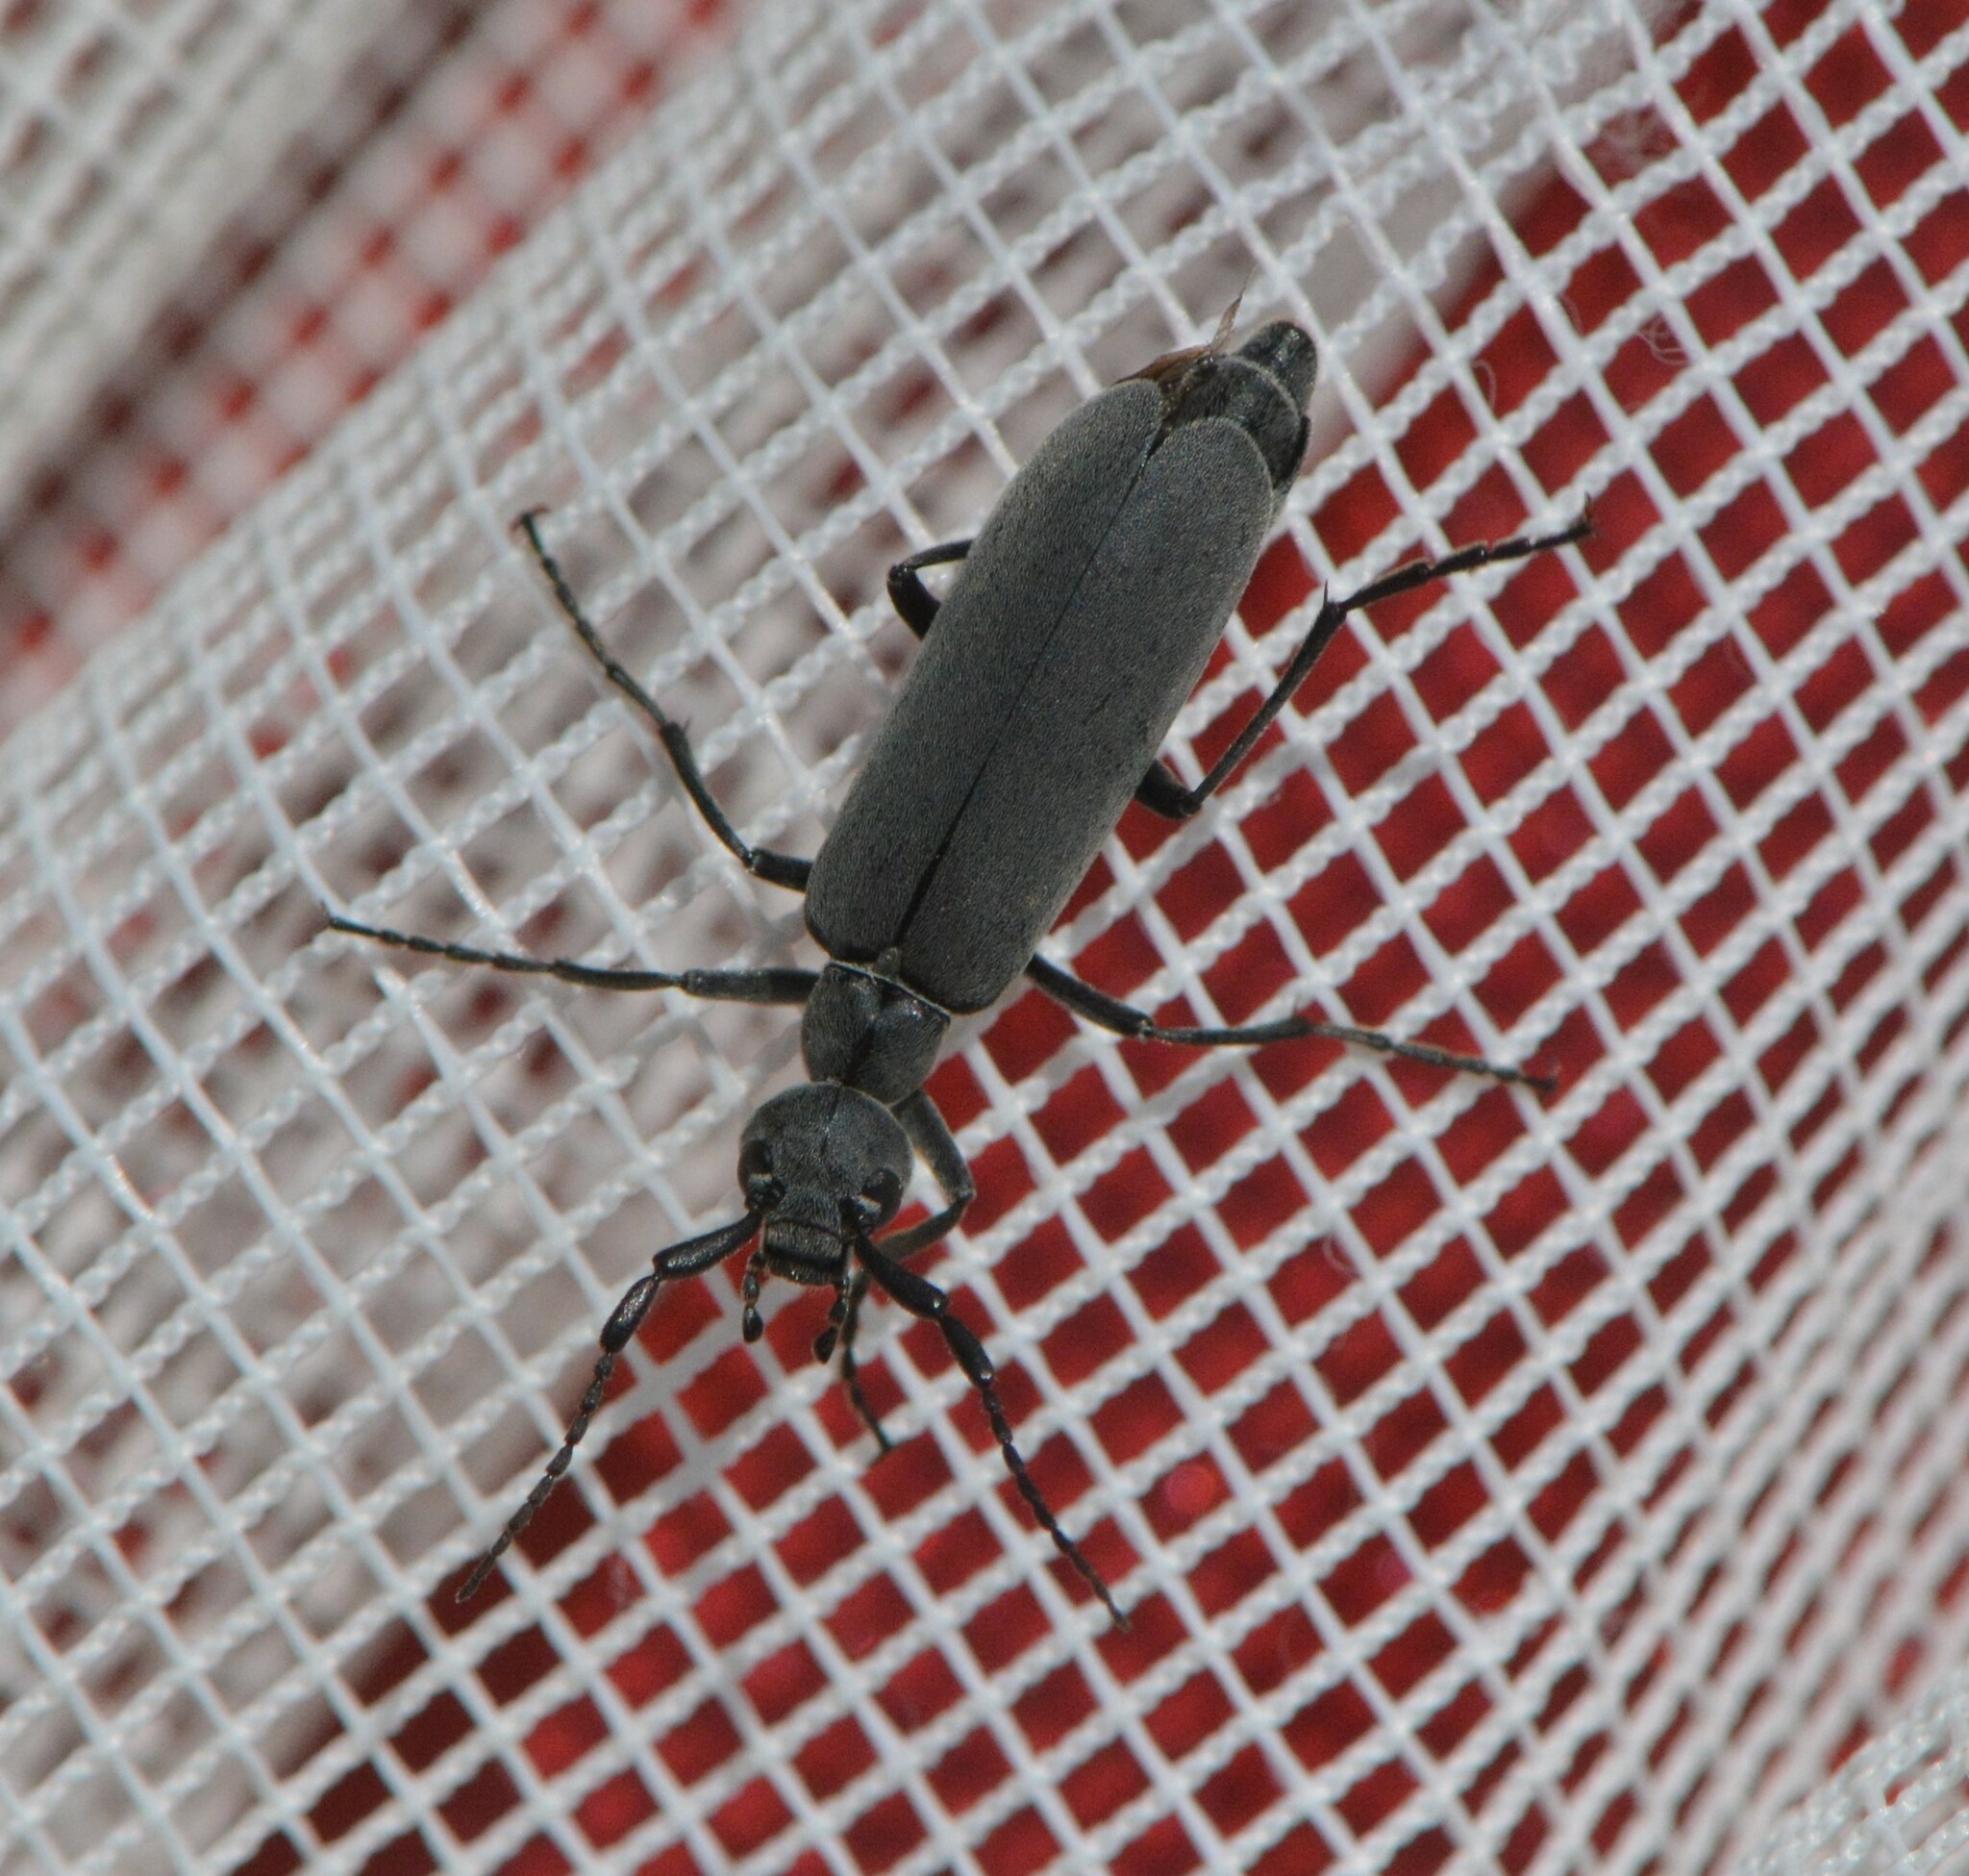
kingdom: Animalia
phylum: Arthropoda
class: Insecta
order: Coleoptera
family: Meloidae
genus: Epicauta
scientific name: Epicauta murina
